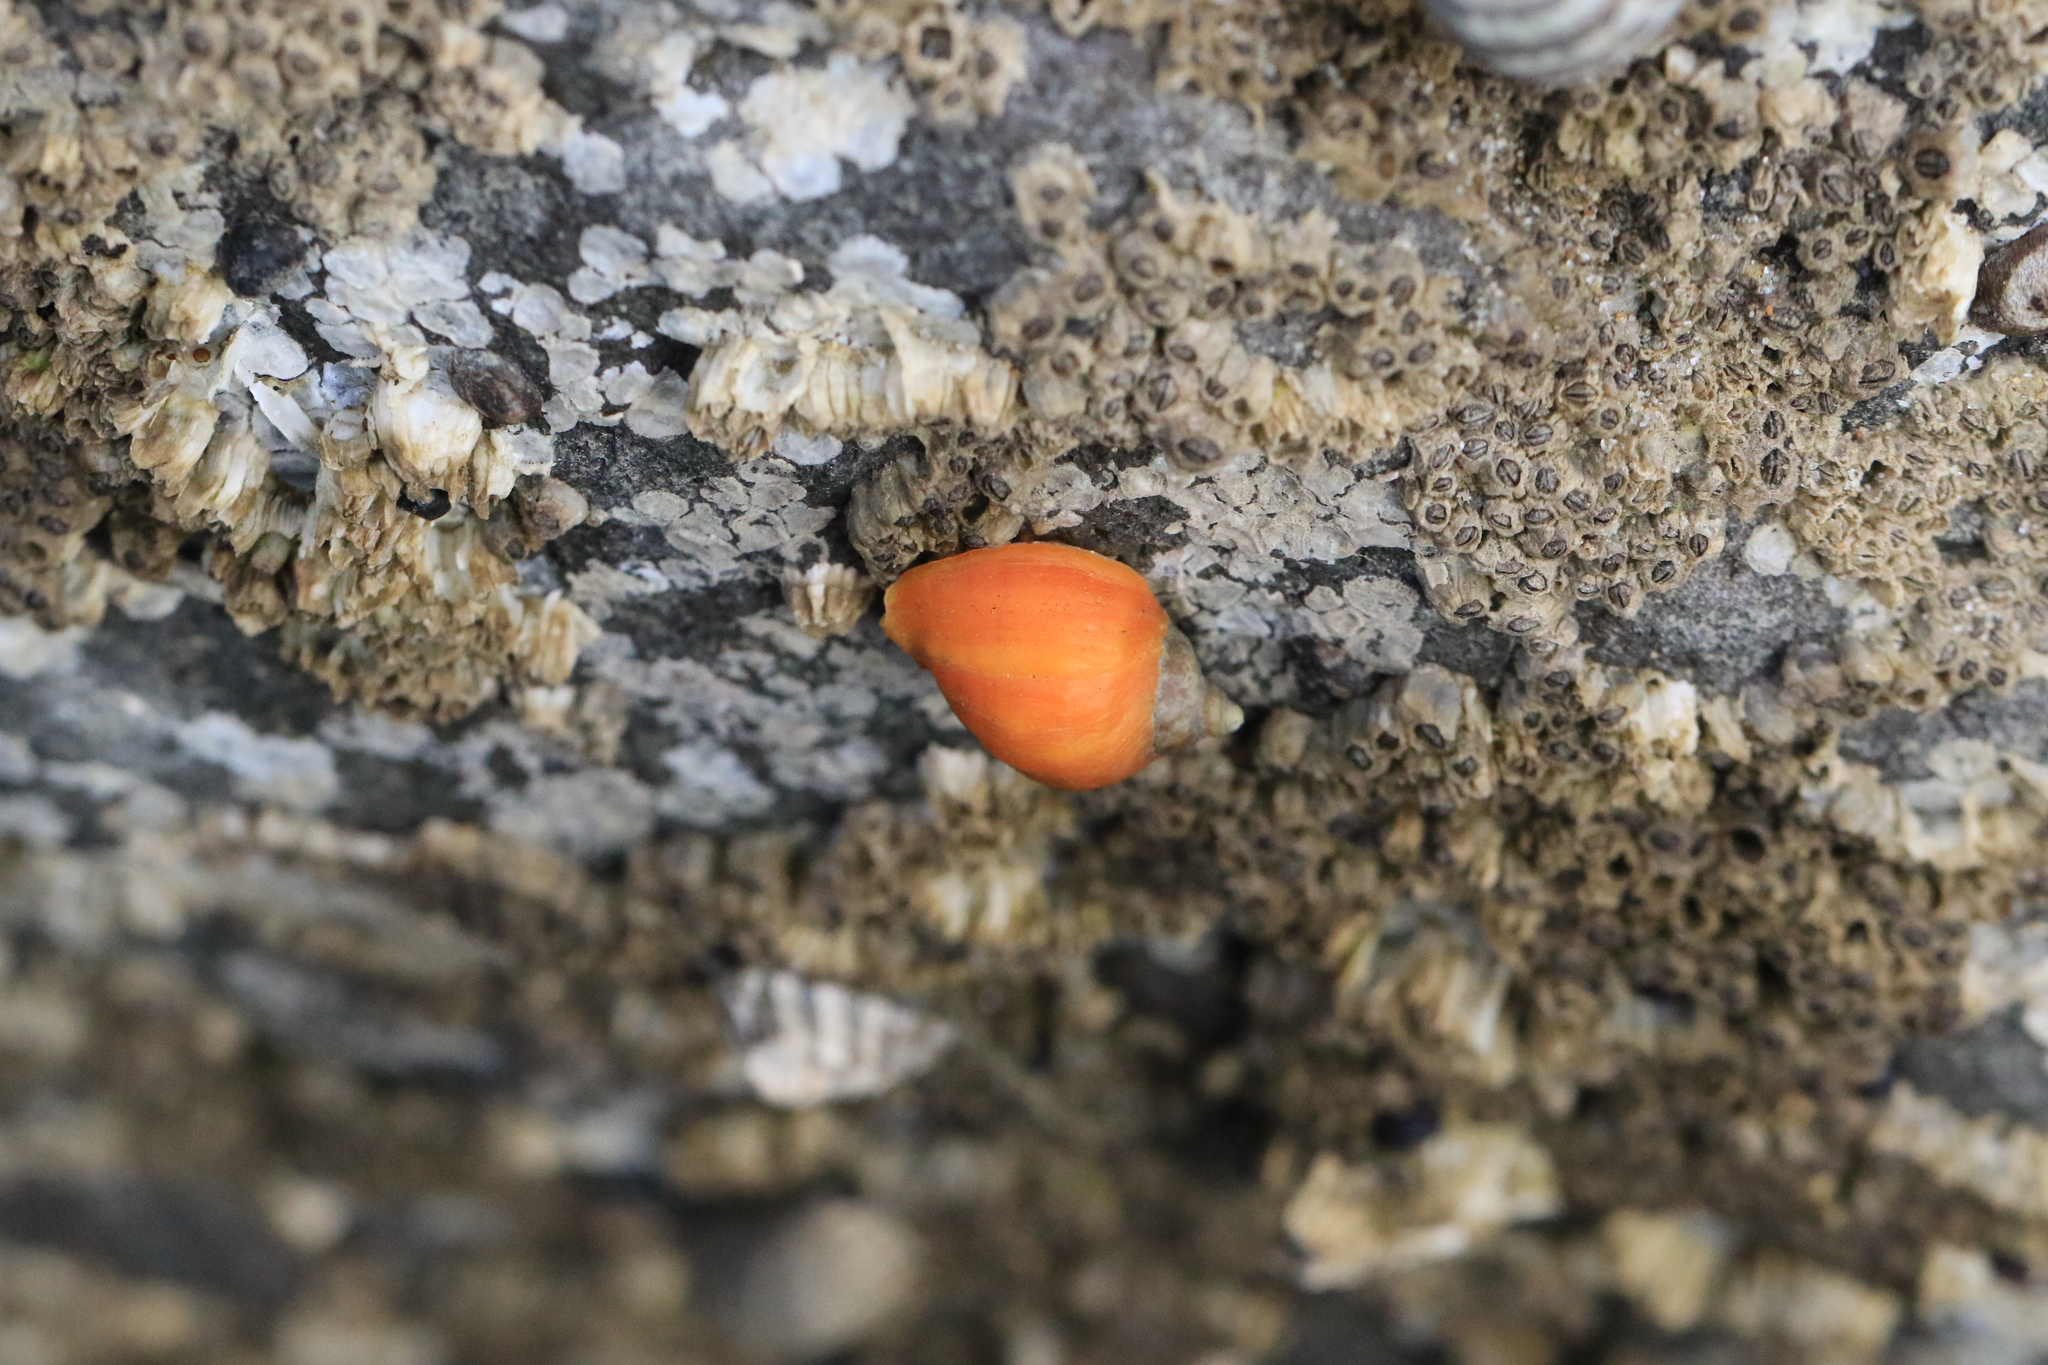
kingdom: Animalia
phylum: Mollusca
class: Gastropoda
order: Neogastropoda
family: Muricidae
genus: Nucella
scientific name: Nucella ostrina
